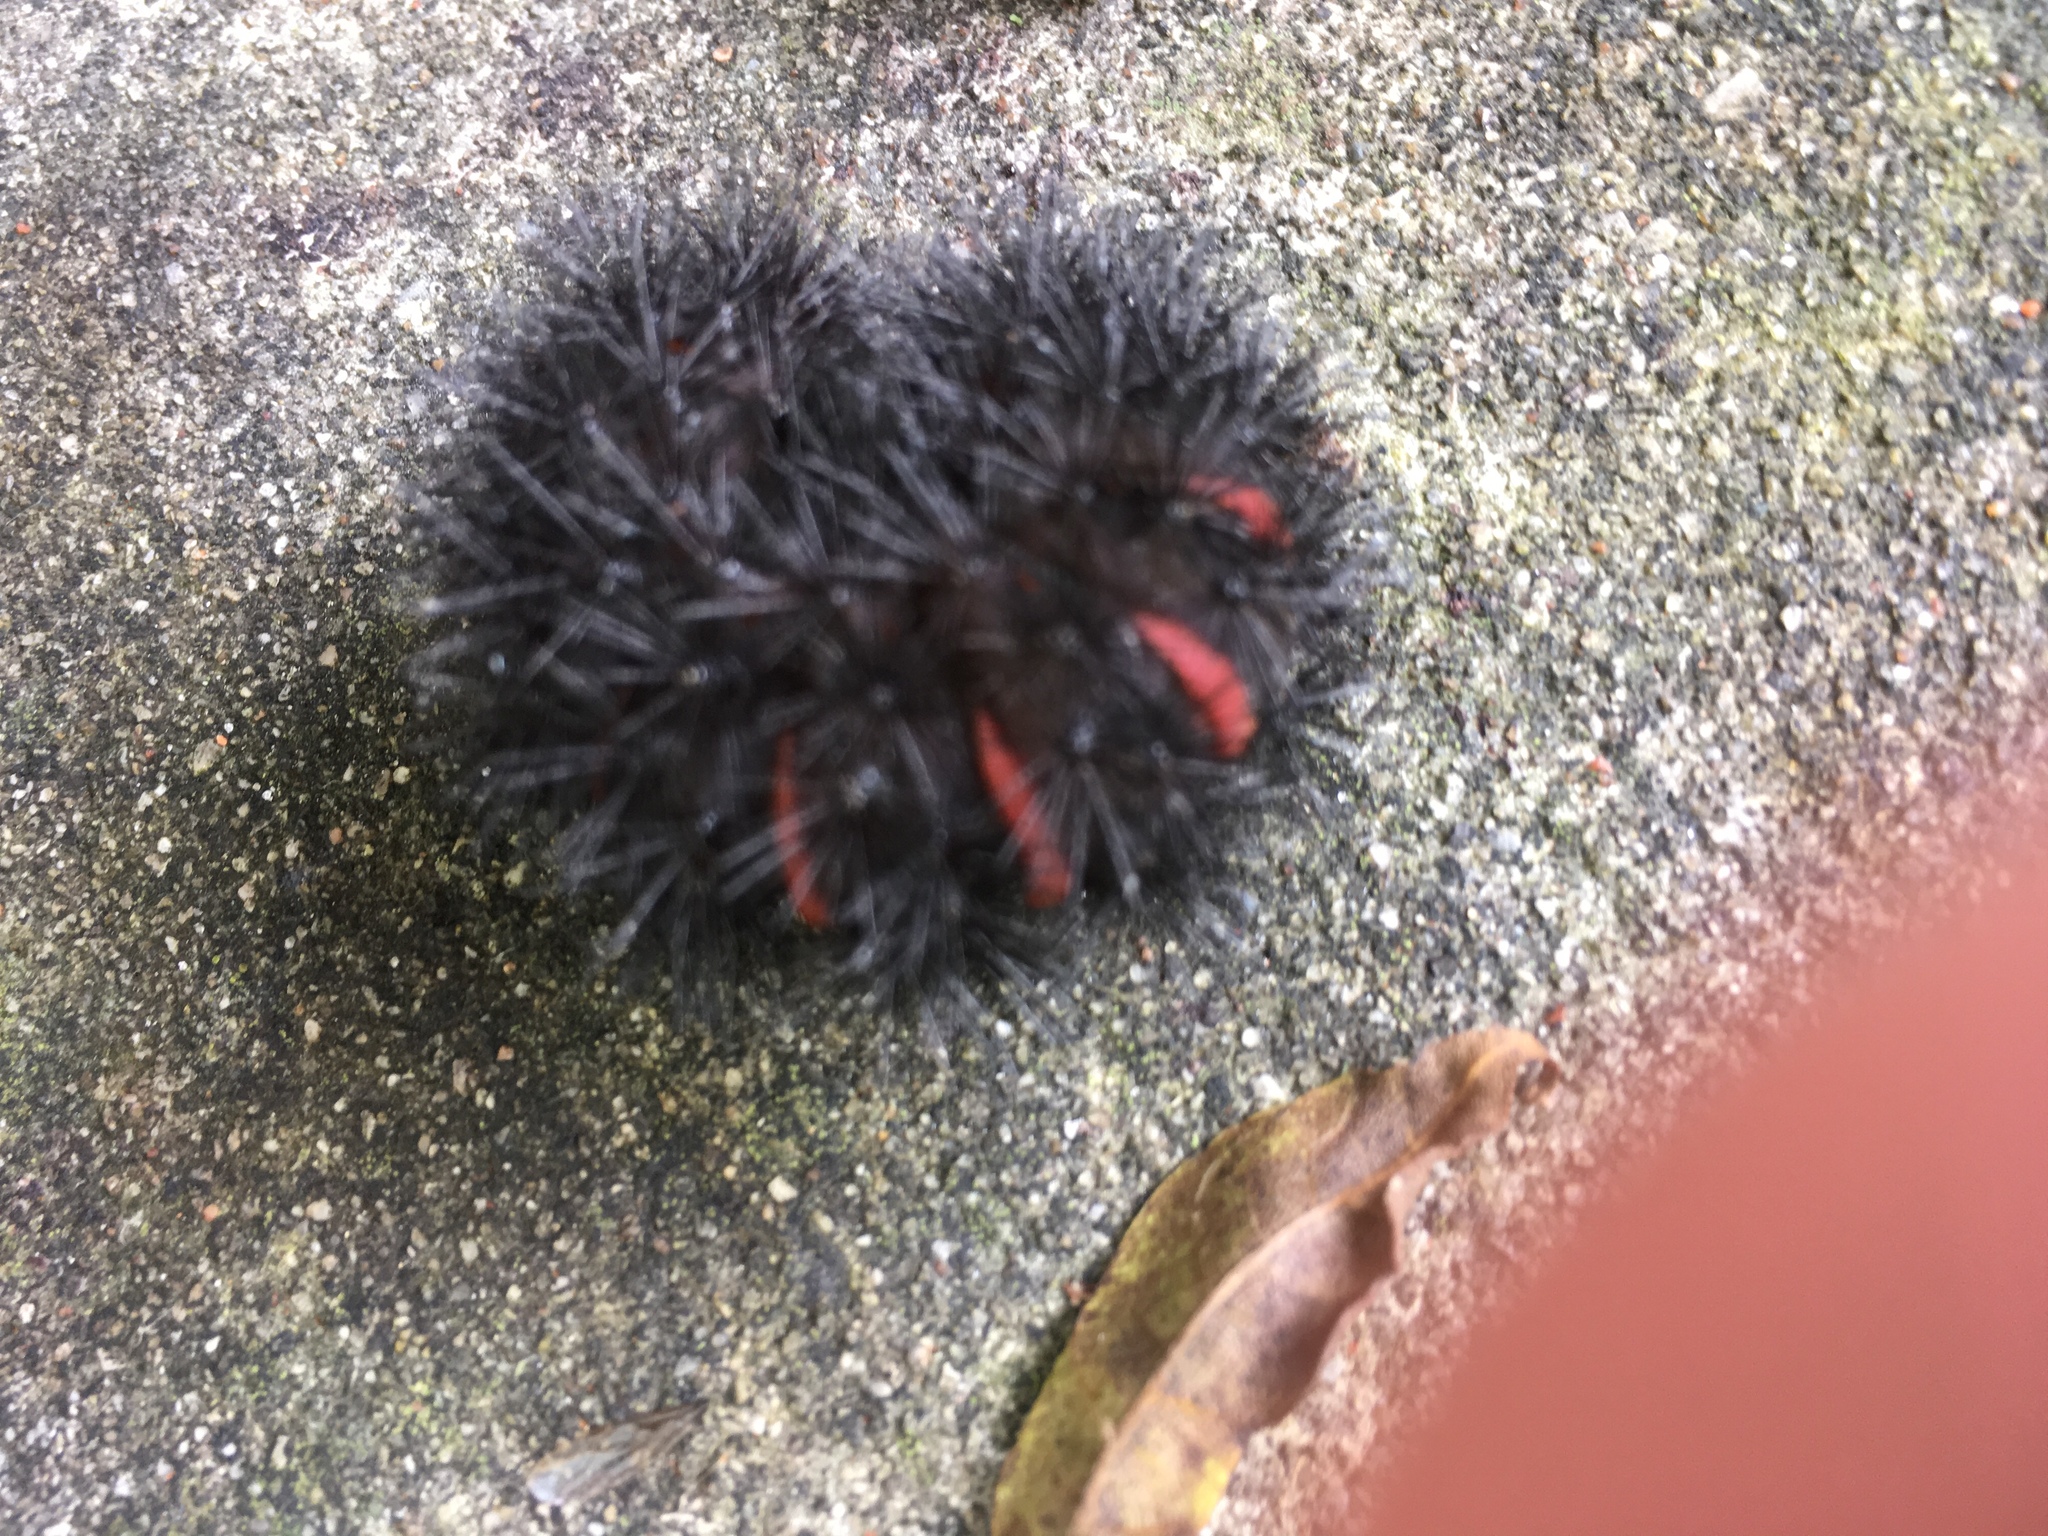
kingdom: Animalia
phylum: Arthropoda
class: Insecta
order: Lepidoptera
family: Erebidae
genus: Hypercompe
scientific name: Hypercompe scribonia
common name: Giant leopard moth
